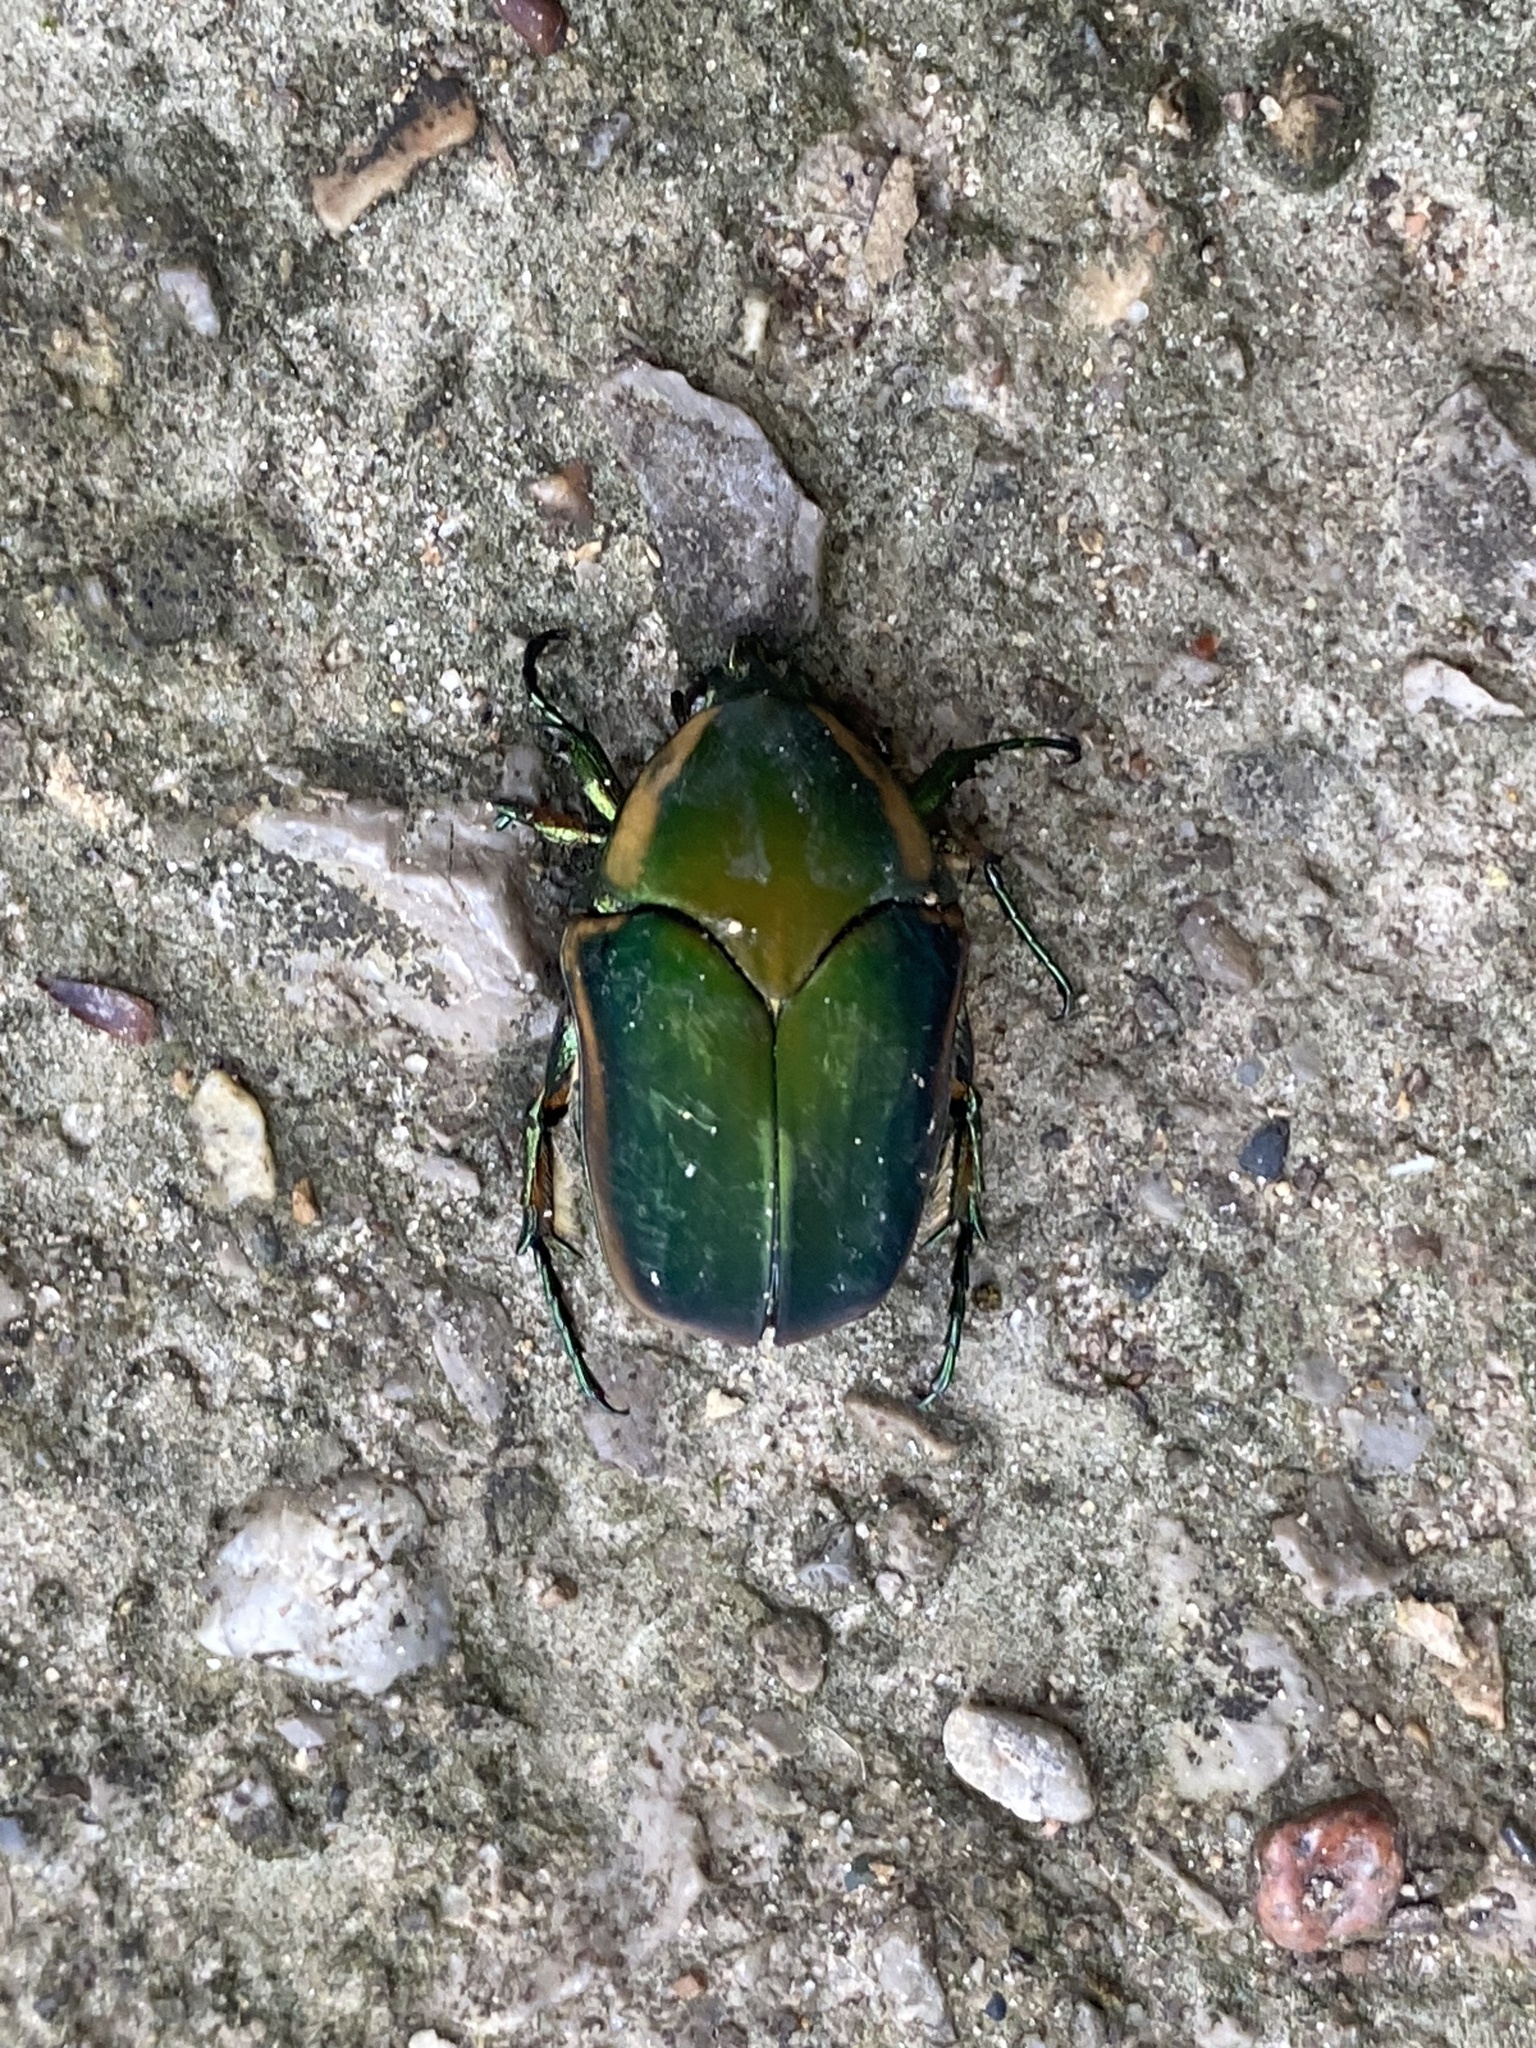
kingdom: Animalia
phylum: Arthropoda
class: Insecta
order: Coleoptera
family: Scarabaeidae
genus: Cotinis
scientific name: Cotinis nitida
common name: Common green june beetle
